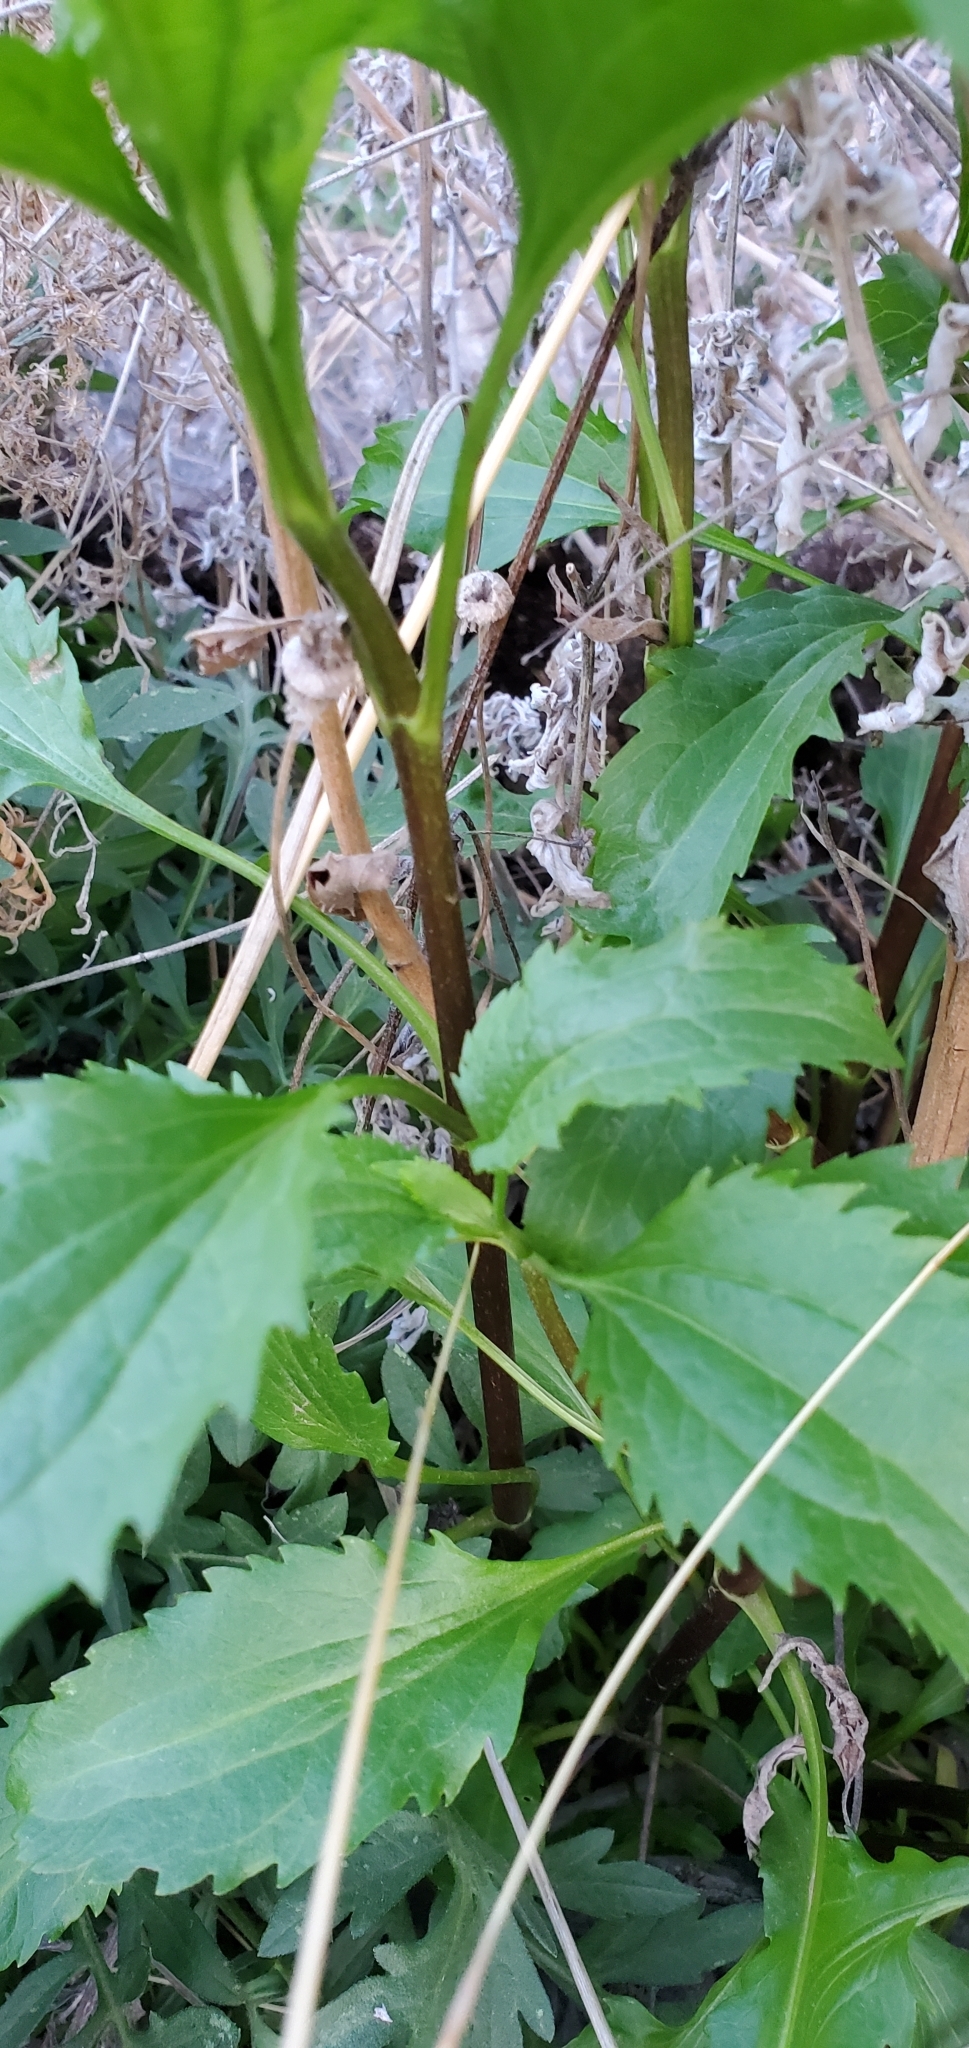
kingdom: Plantae
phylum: Tracheophyta
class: Magnoliopsida
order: Asterales
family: Asteraceae
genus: Eupatorium
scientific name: Eupatorium serotinum
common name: Late boneset
